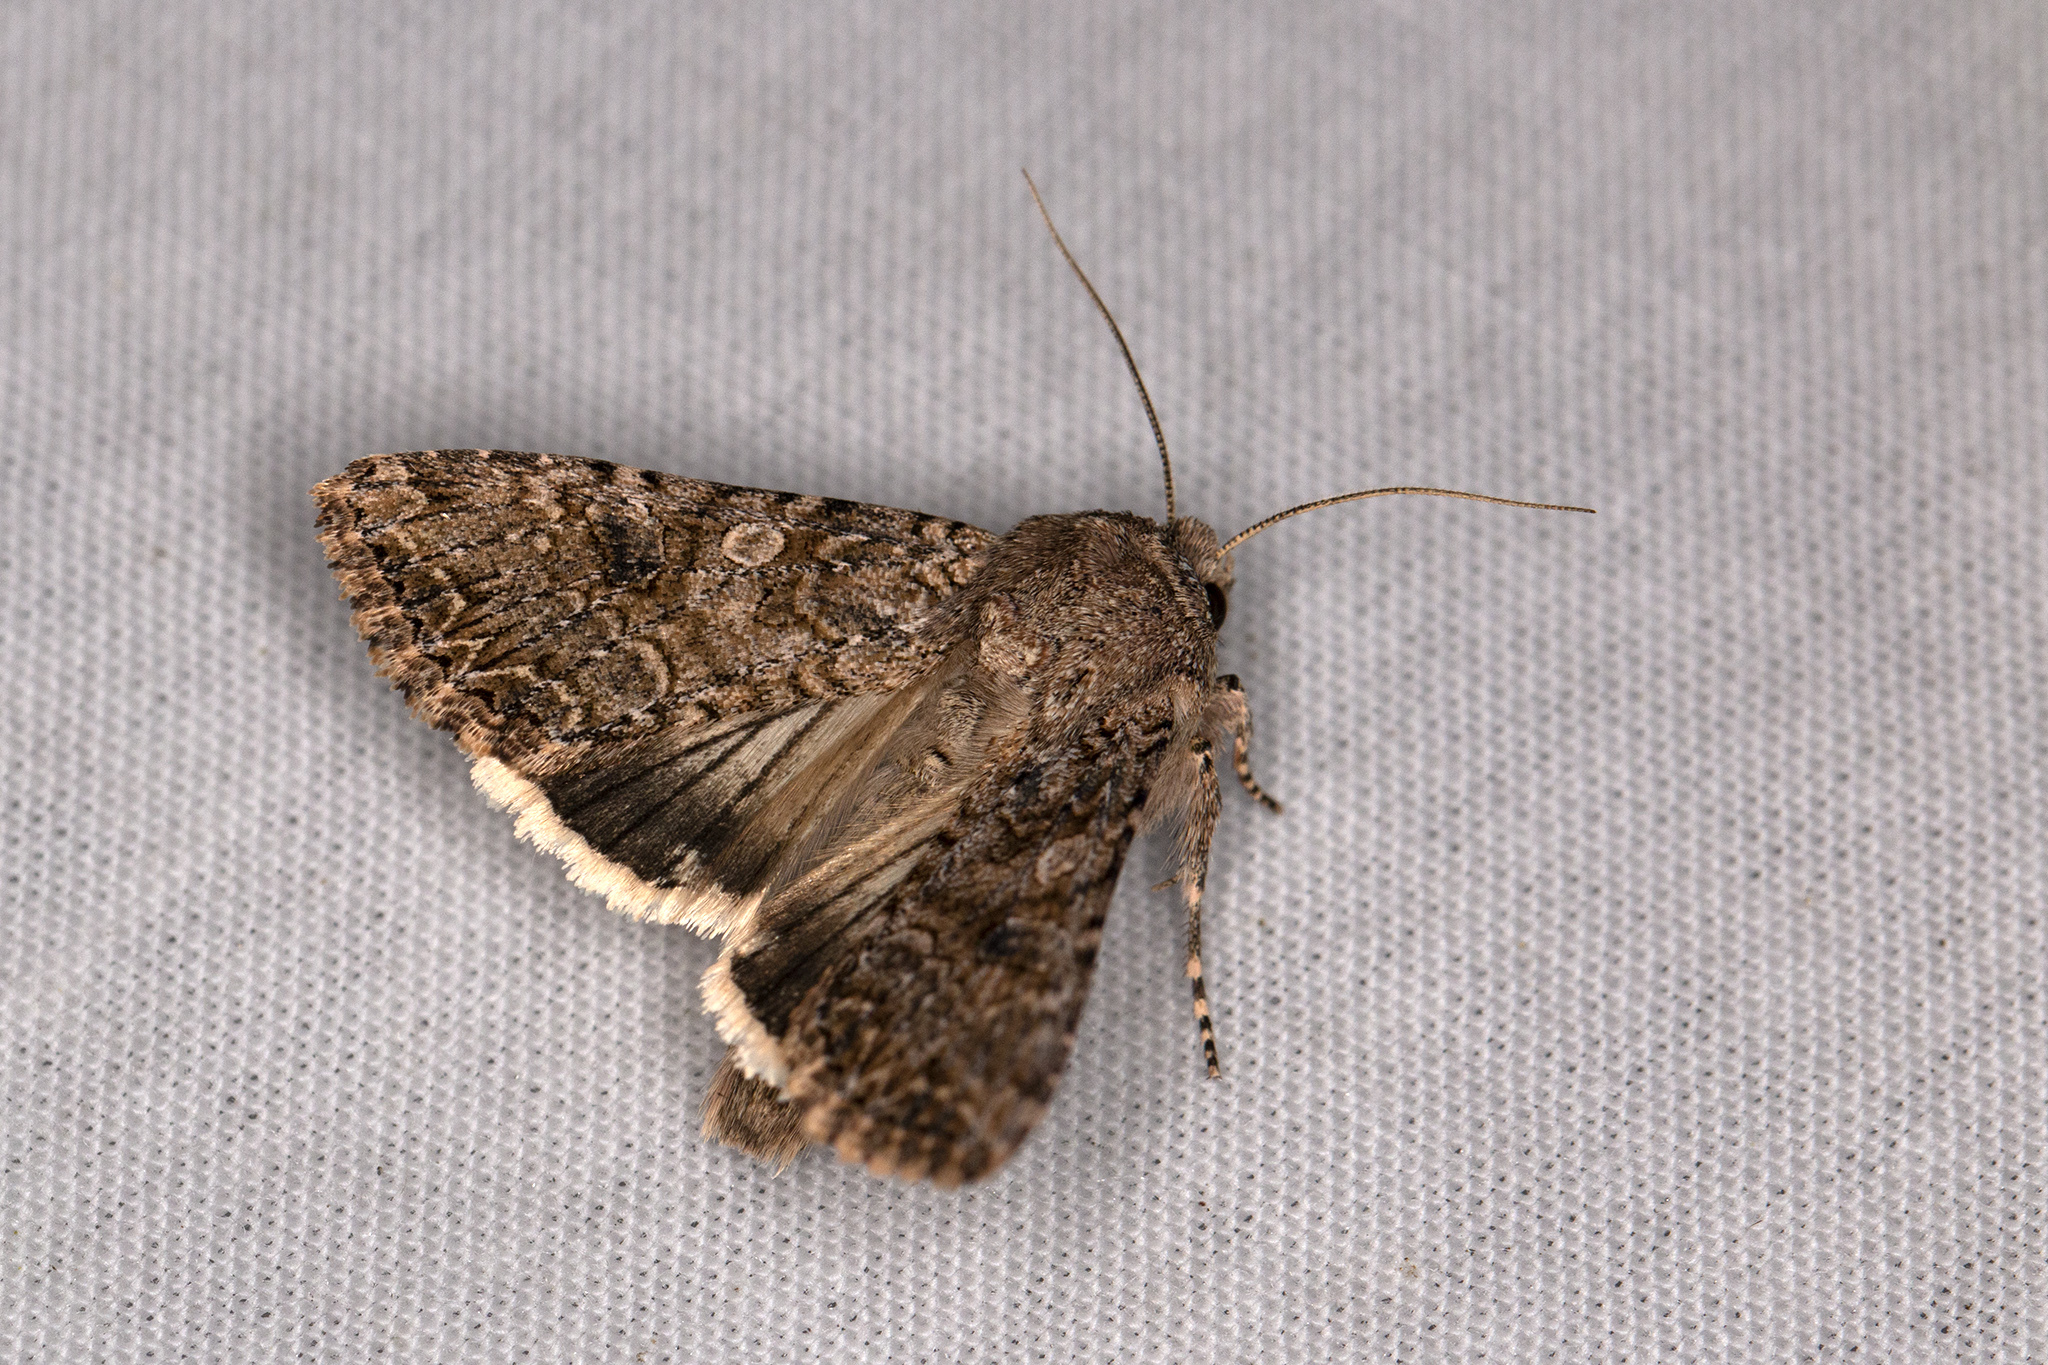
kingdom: Animalia
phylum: Arthropoda
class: Insecta
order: Lepidoptera
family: Noctuidae
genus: Anarta
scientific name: Anarta trifolii
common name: Clover cutworm moth
